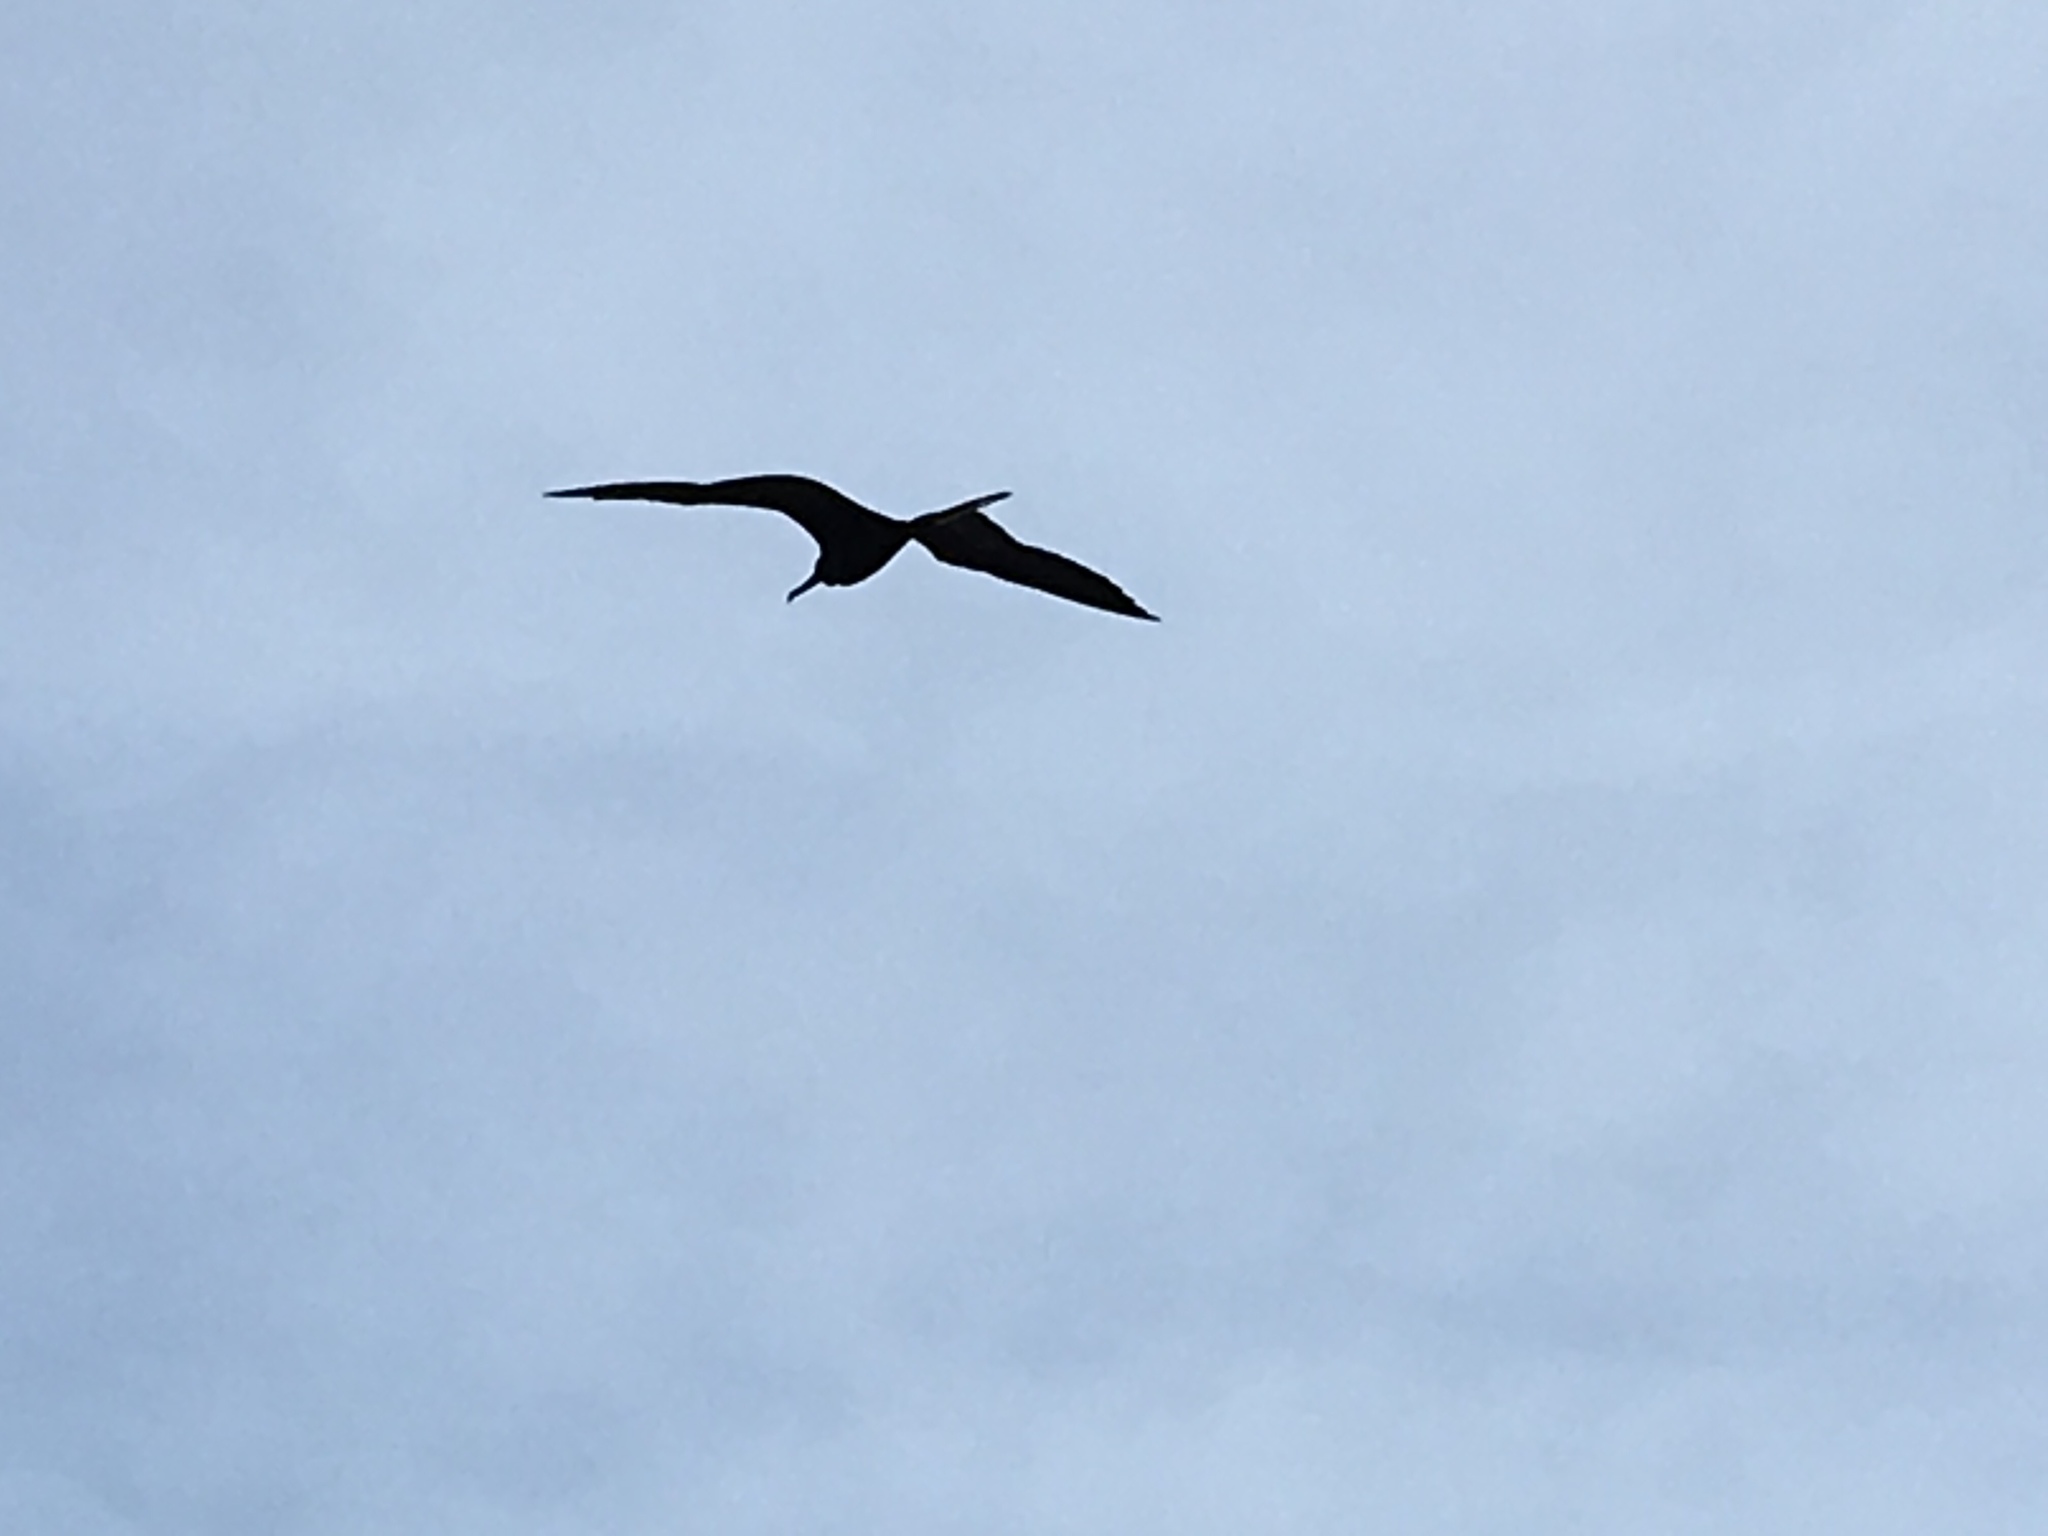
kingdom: Animalia
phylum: Chordata
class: Aves
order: Suliformes
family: Fregatidae
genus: Fregata
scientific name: Fregata magnificens
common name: Magnificent frigatebird
